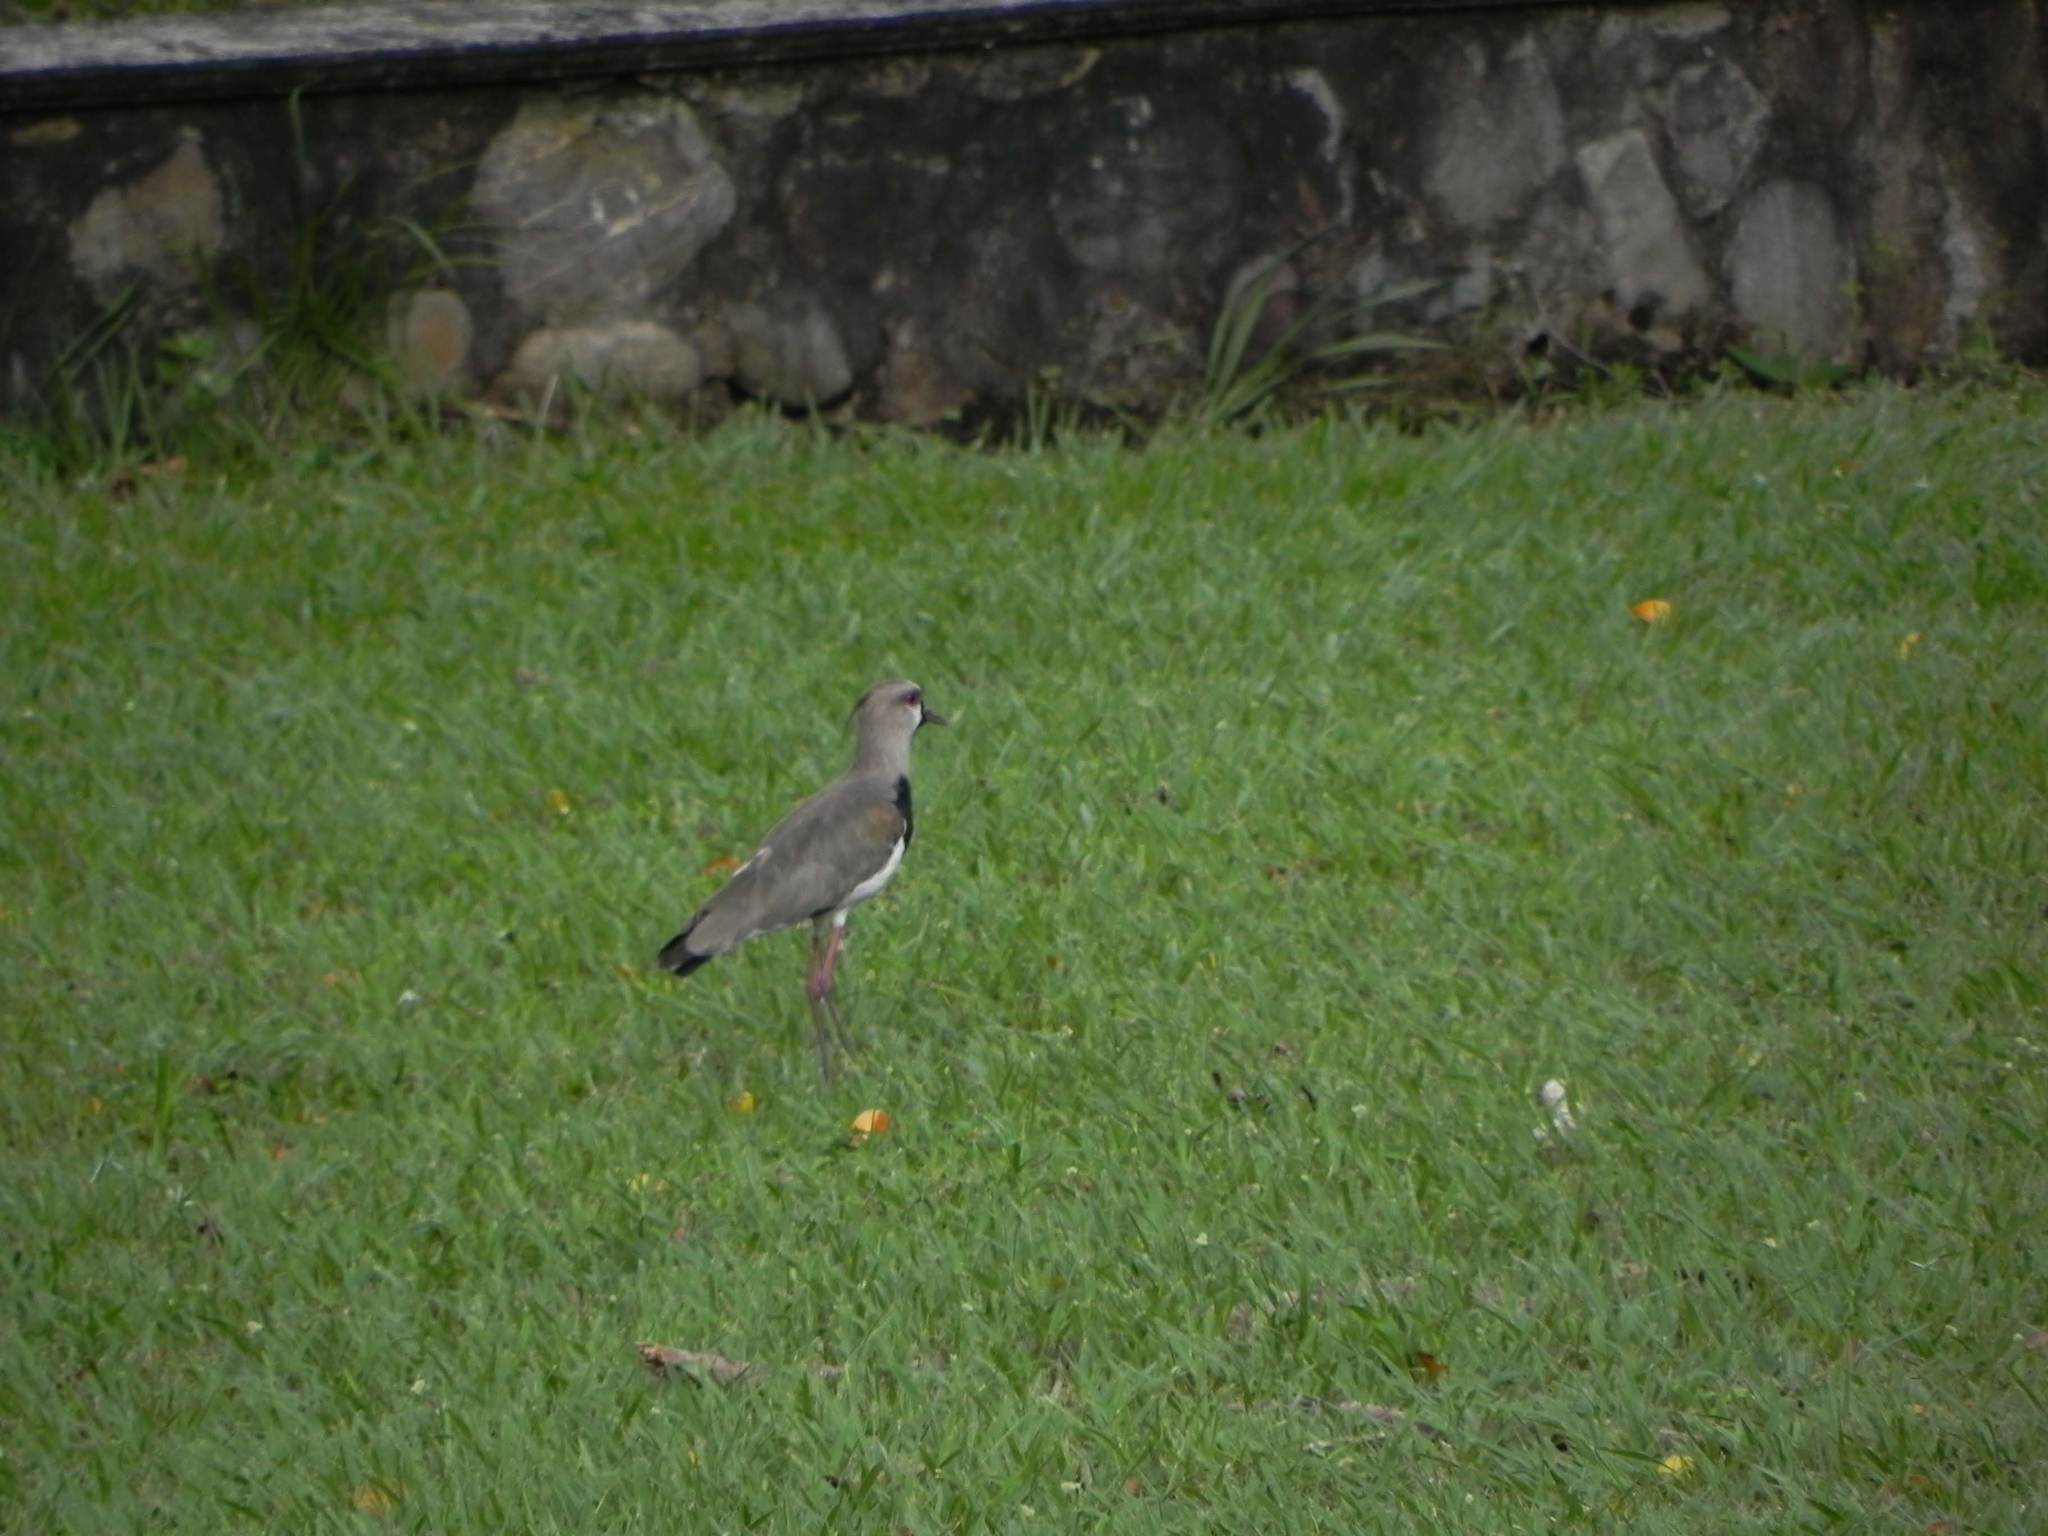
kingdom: Animalia
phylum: Chordata
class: Aves
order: Charadriiformes
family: Charadriidae
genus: Vanellus
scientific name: Vanellus chilensis
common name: Southern lapwing
